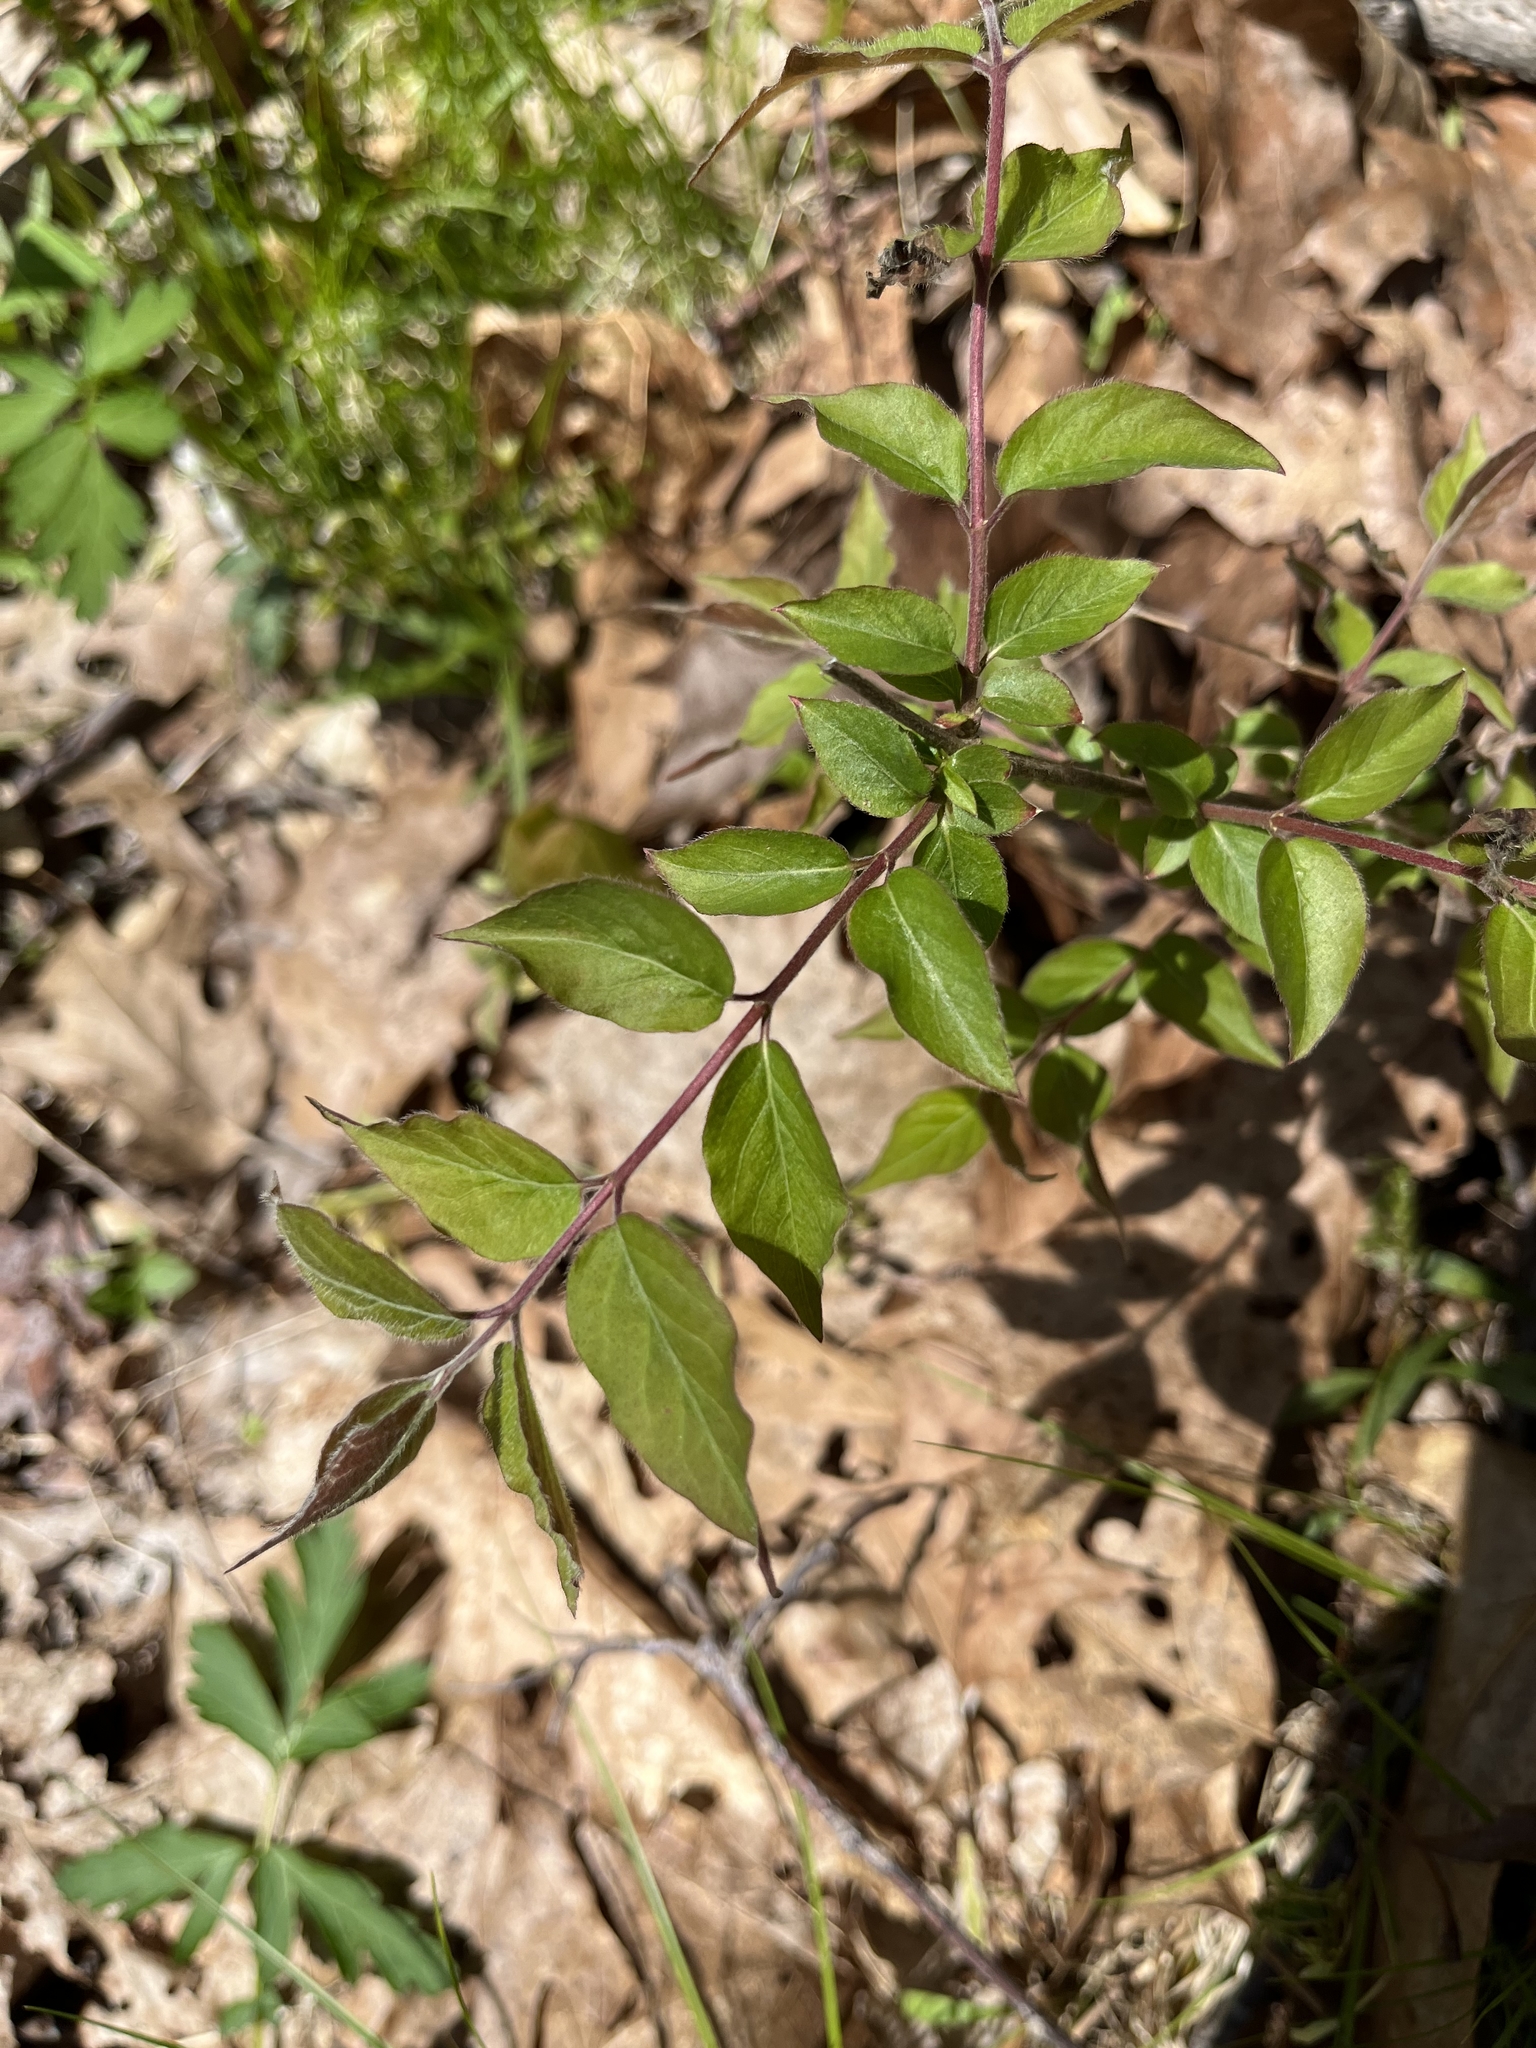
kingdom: Plantae
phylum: Tracheophyta
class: Magnoliopsida
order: Dipsacales
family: Caprifoliaceae
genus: Lonicera
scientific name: Lonicera maackii
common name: Amur honeysuckle
